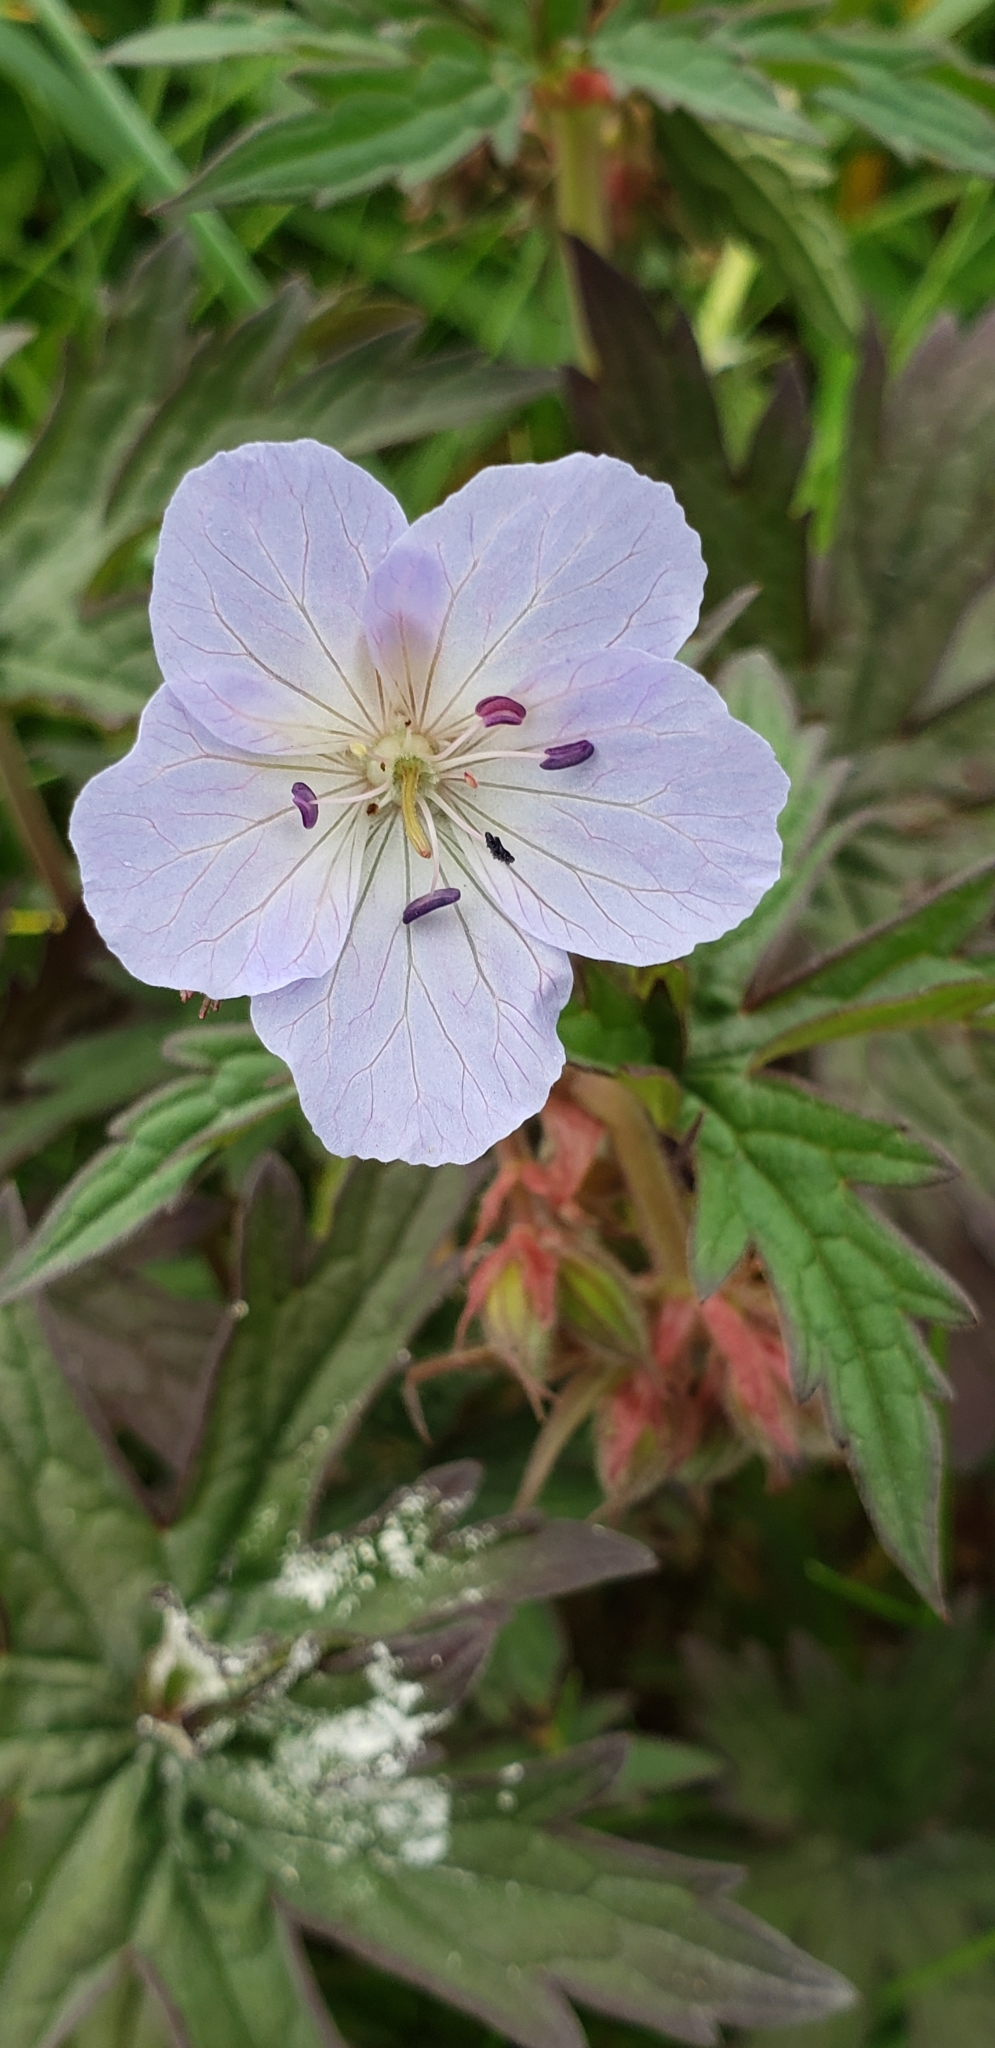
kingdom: Plantae
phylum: Tracheophyta
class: Magnoliopsida
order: Geraniales
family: Geraniaceae
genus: Geranium
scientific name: Geranium erianthum
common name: Northern crane's-bill
